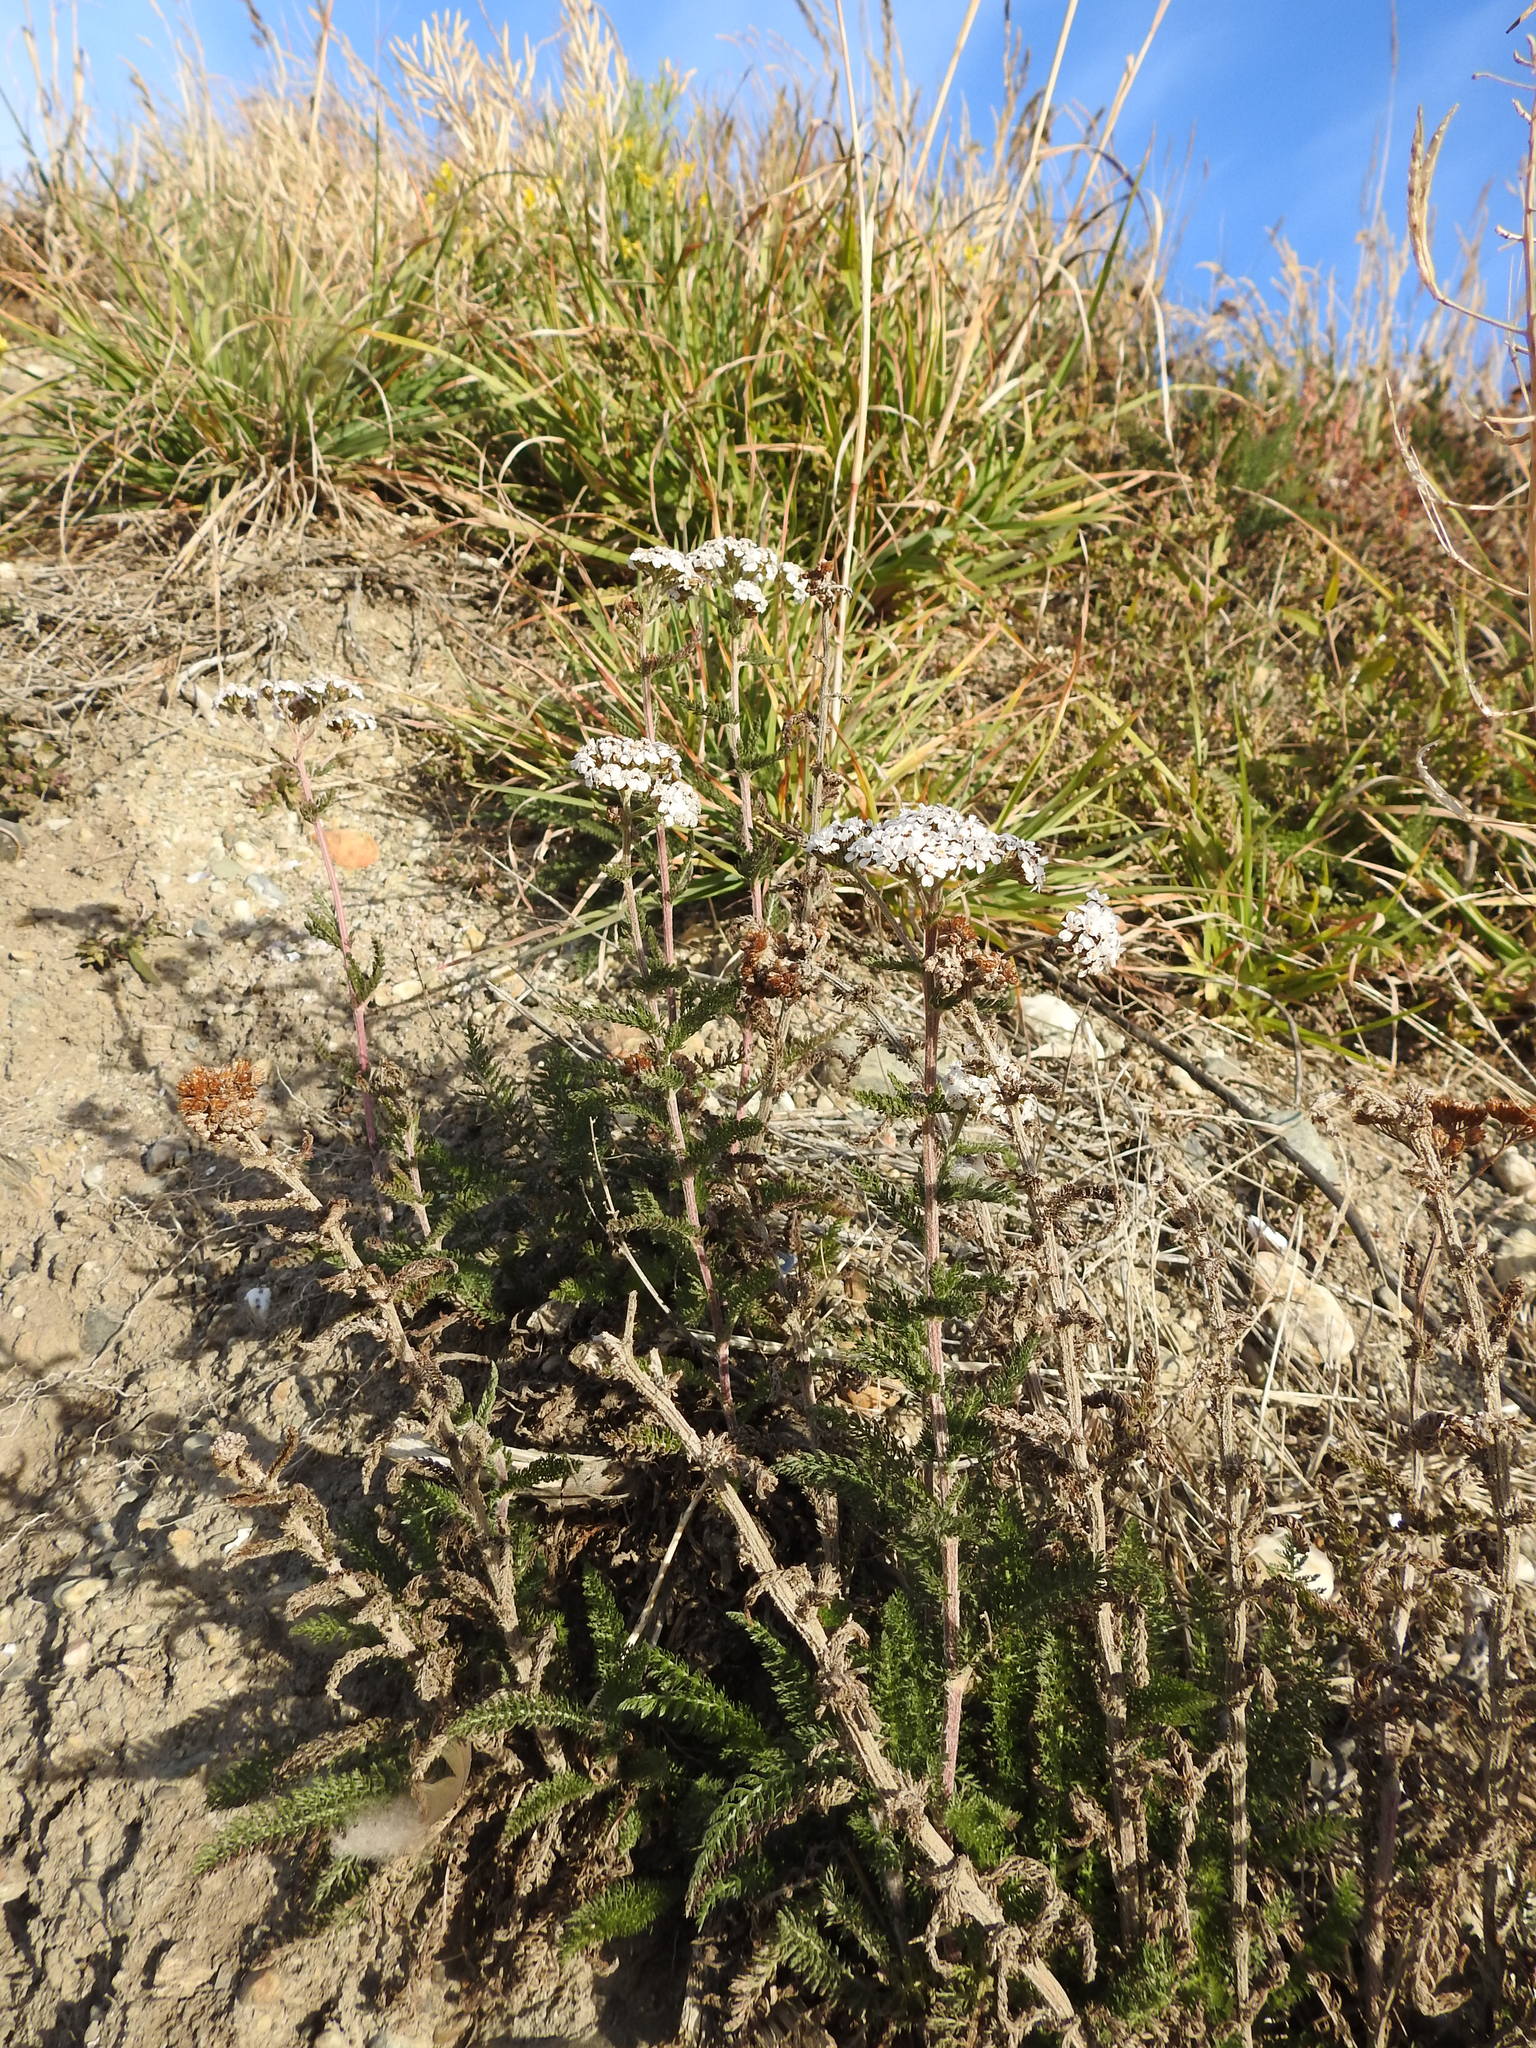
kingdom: Plantae
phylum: Tracheophyta
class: Magnoliopsida
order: Asterales
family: Asteraceae
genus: Achillea
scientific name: Achillea millefolium
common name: Yarrow
